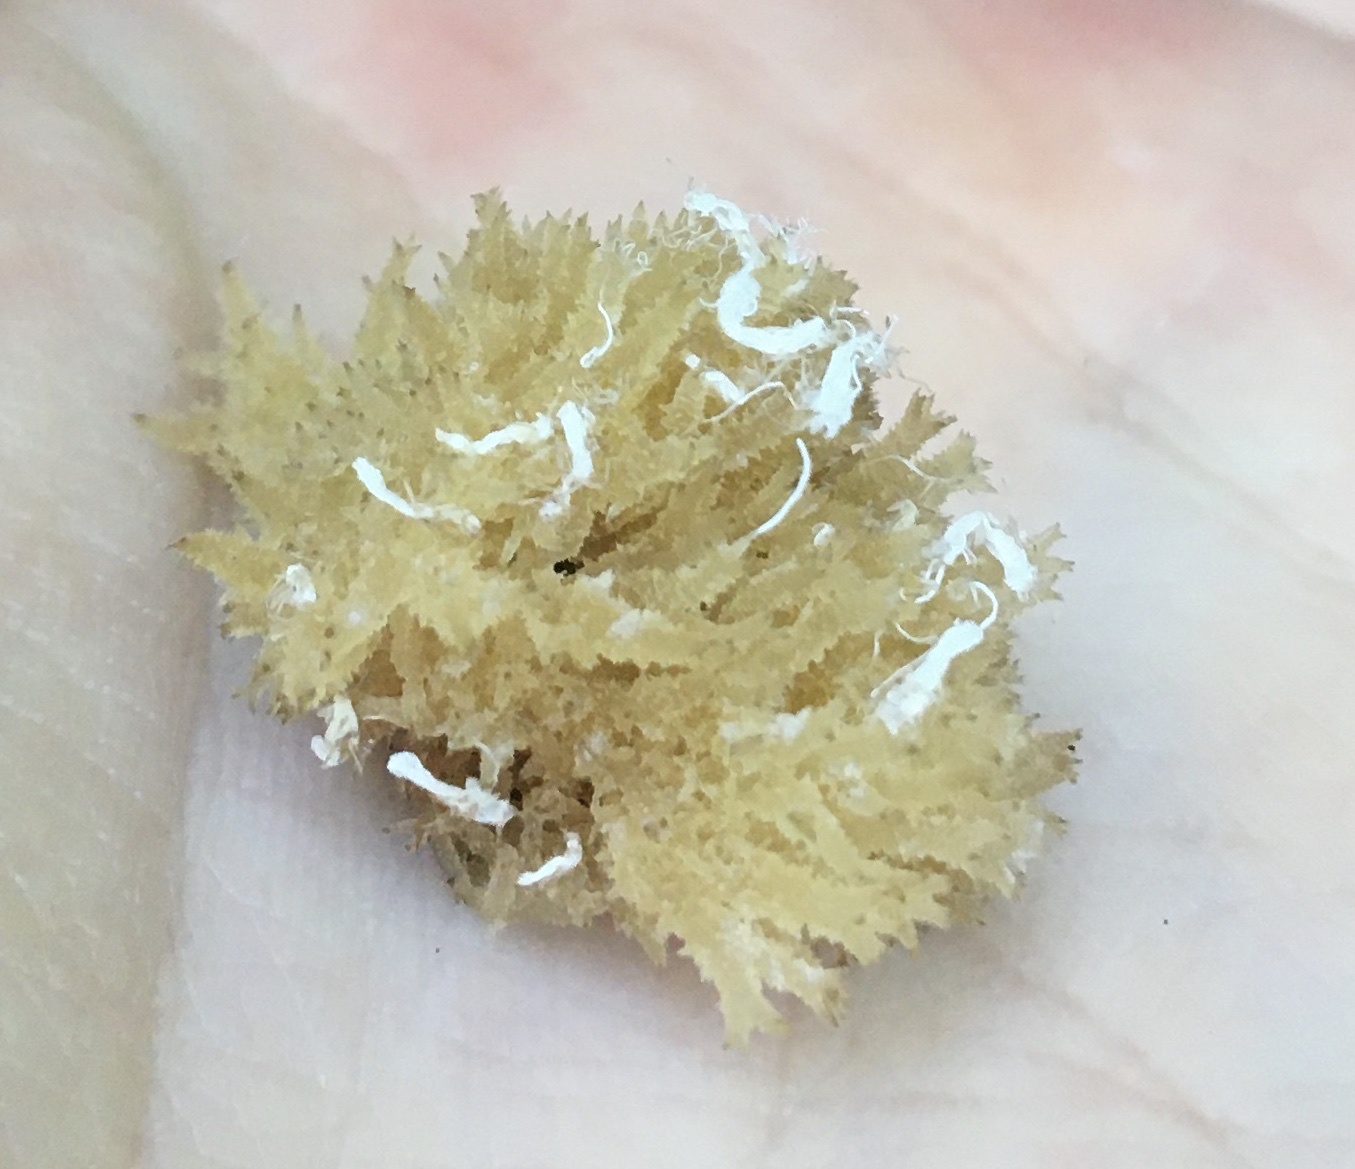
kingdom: Fungi
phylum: Ascomycota
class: Dothideomycetes
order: Capnodiales
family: Capnodiaceae
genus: Scorias
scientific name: Scorias spongiosa
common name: Black sooty mold
